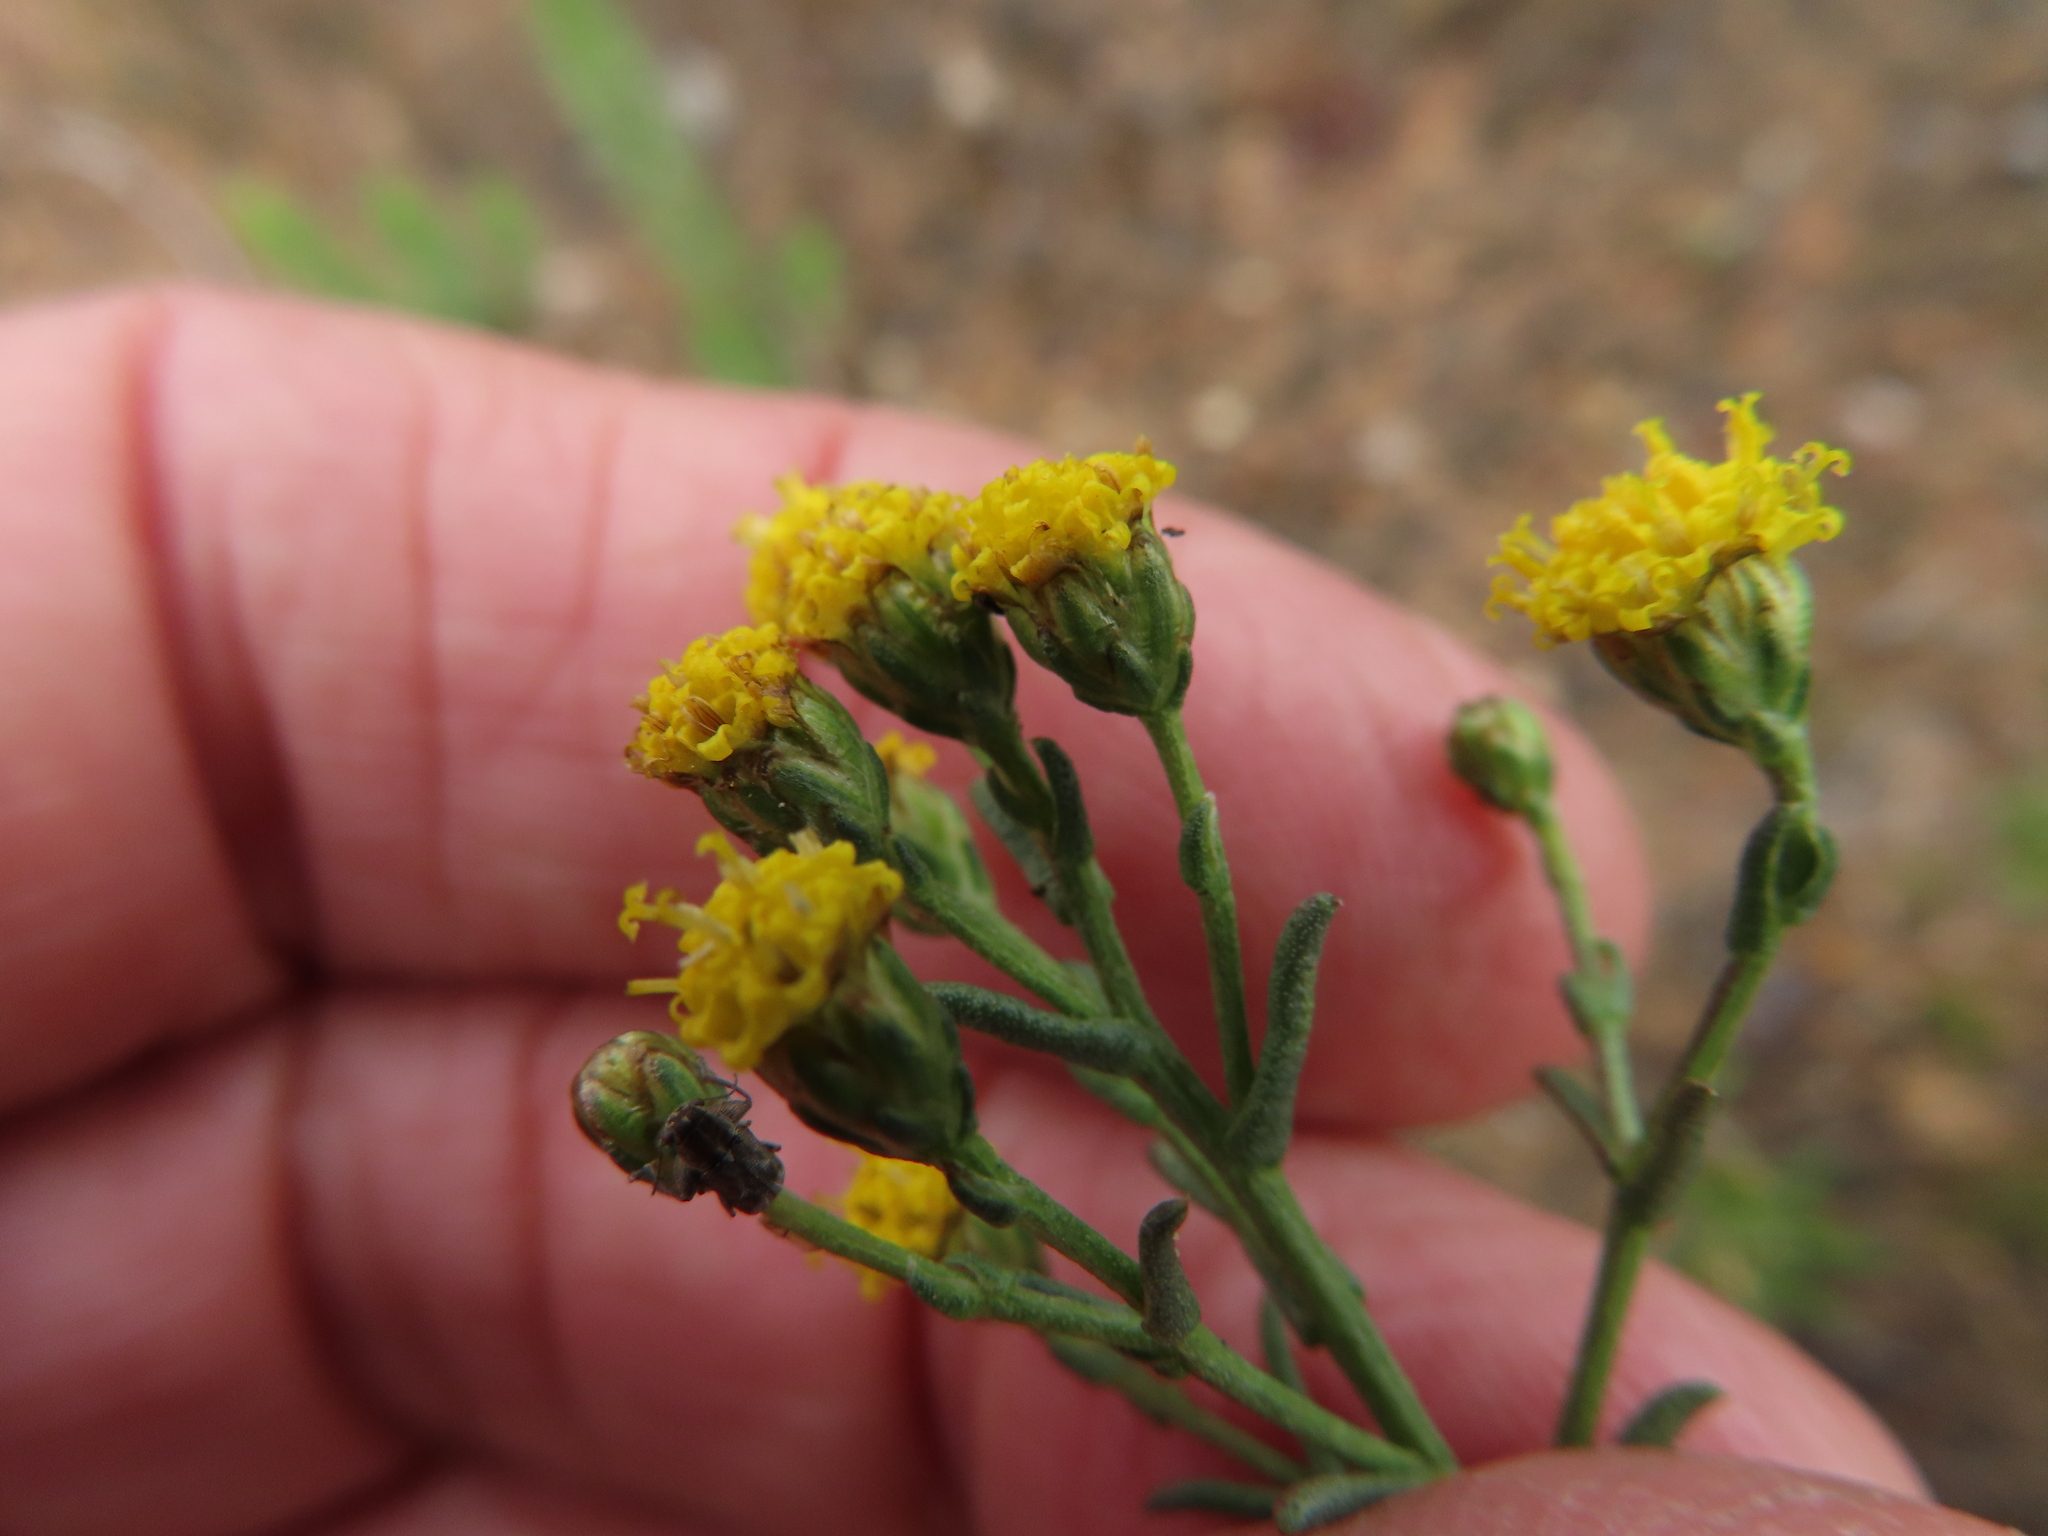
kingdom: Plantae
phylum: Tracheophyta
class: Magnoliopsida
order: Asterales
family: Asteraceae
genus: Marasmodes
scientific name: Marasmodes polycephalus
